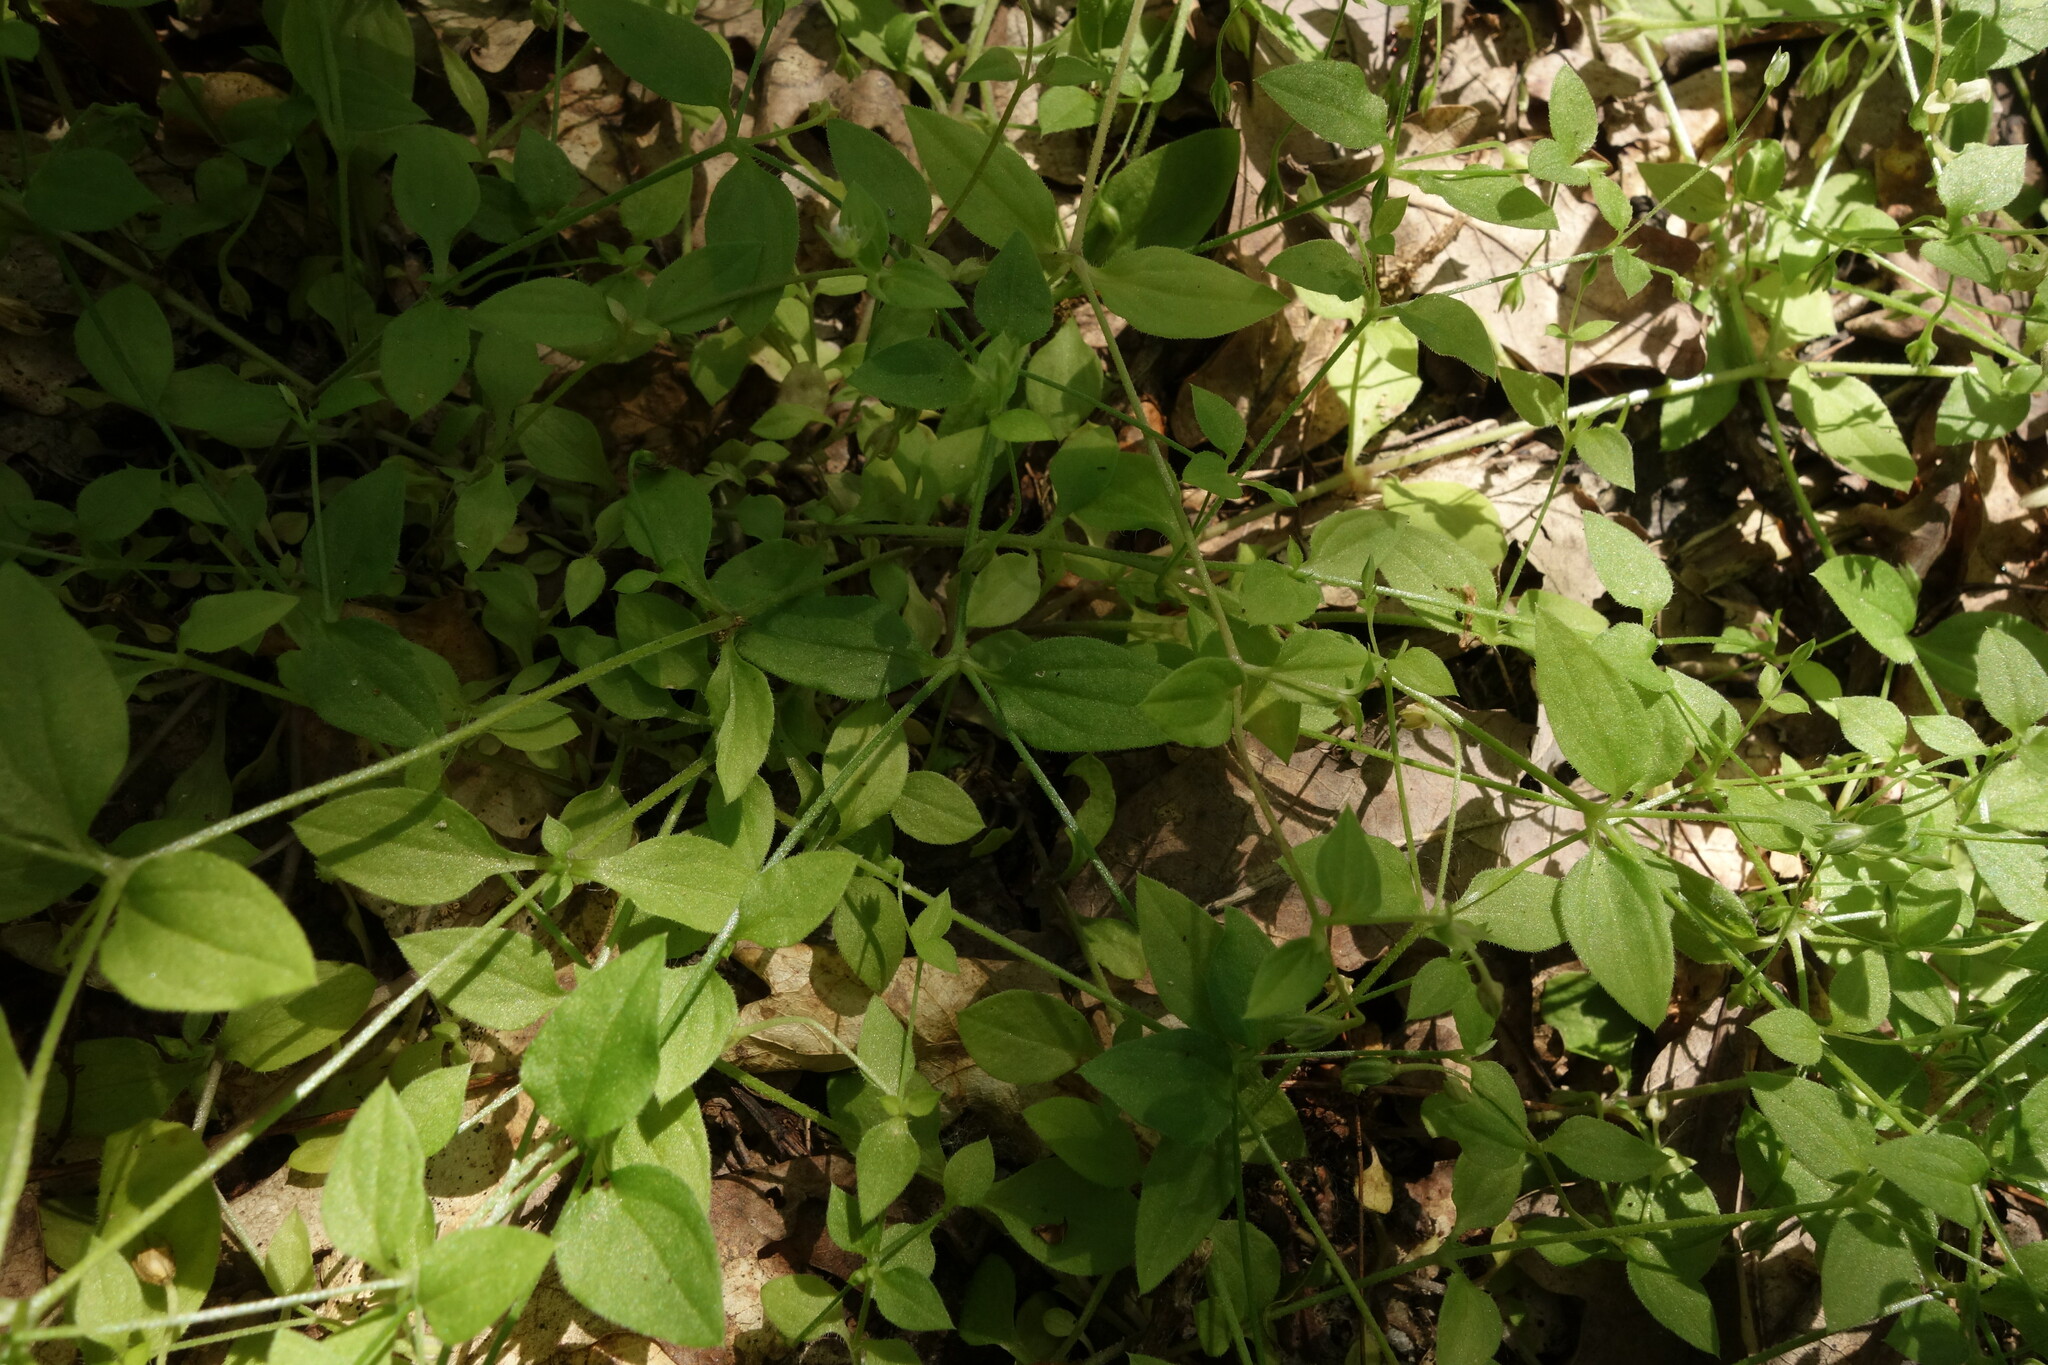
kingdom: Plantae
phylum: Tracheophyta
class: Magnoliopsida
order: Caryophyllales
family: Caryophyllaceae
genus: Moehringia
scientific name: Moehringia trinervia
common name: Three-nerved sandwort
